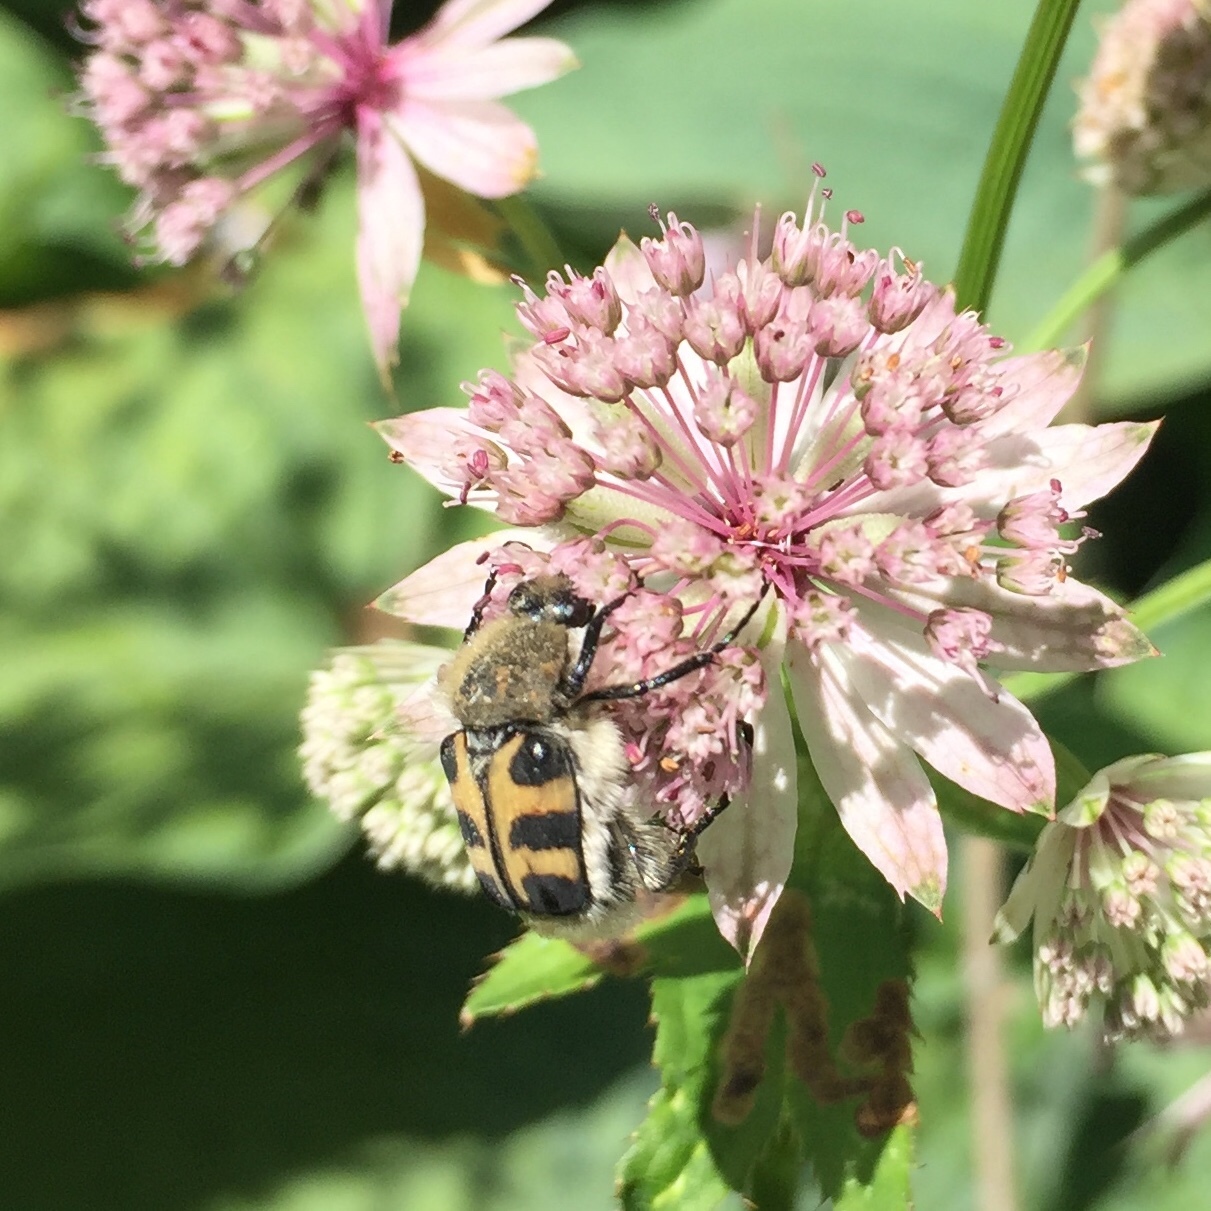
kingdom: Animalia
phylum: Arthropoda
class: Insecta
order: Coleoptera
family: Scarabaeidae
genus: Trichius
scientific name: Trichius gallicus
